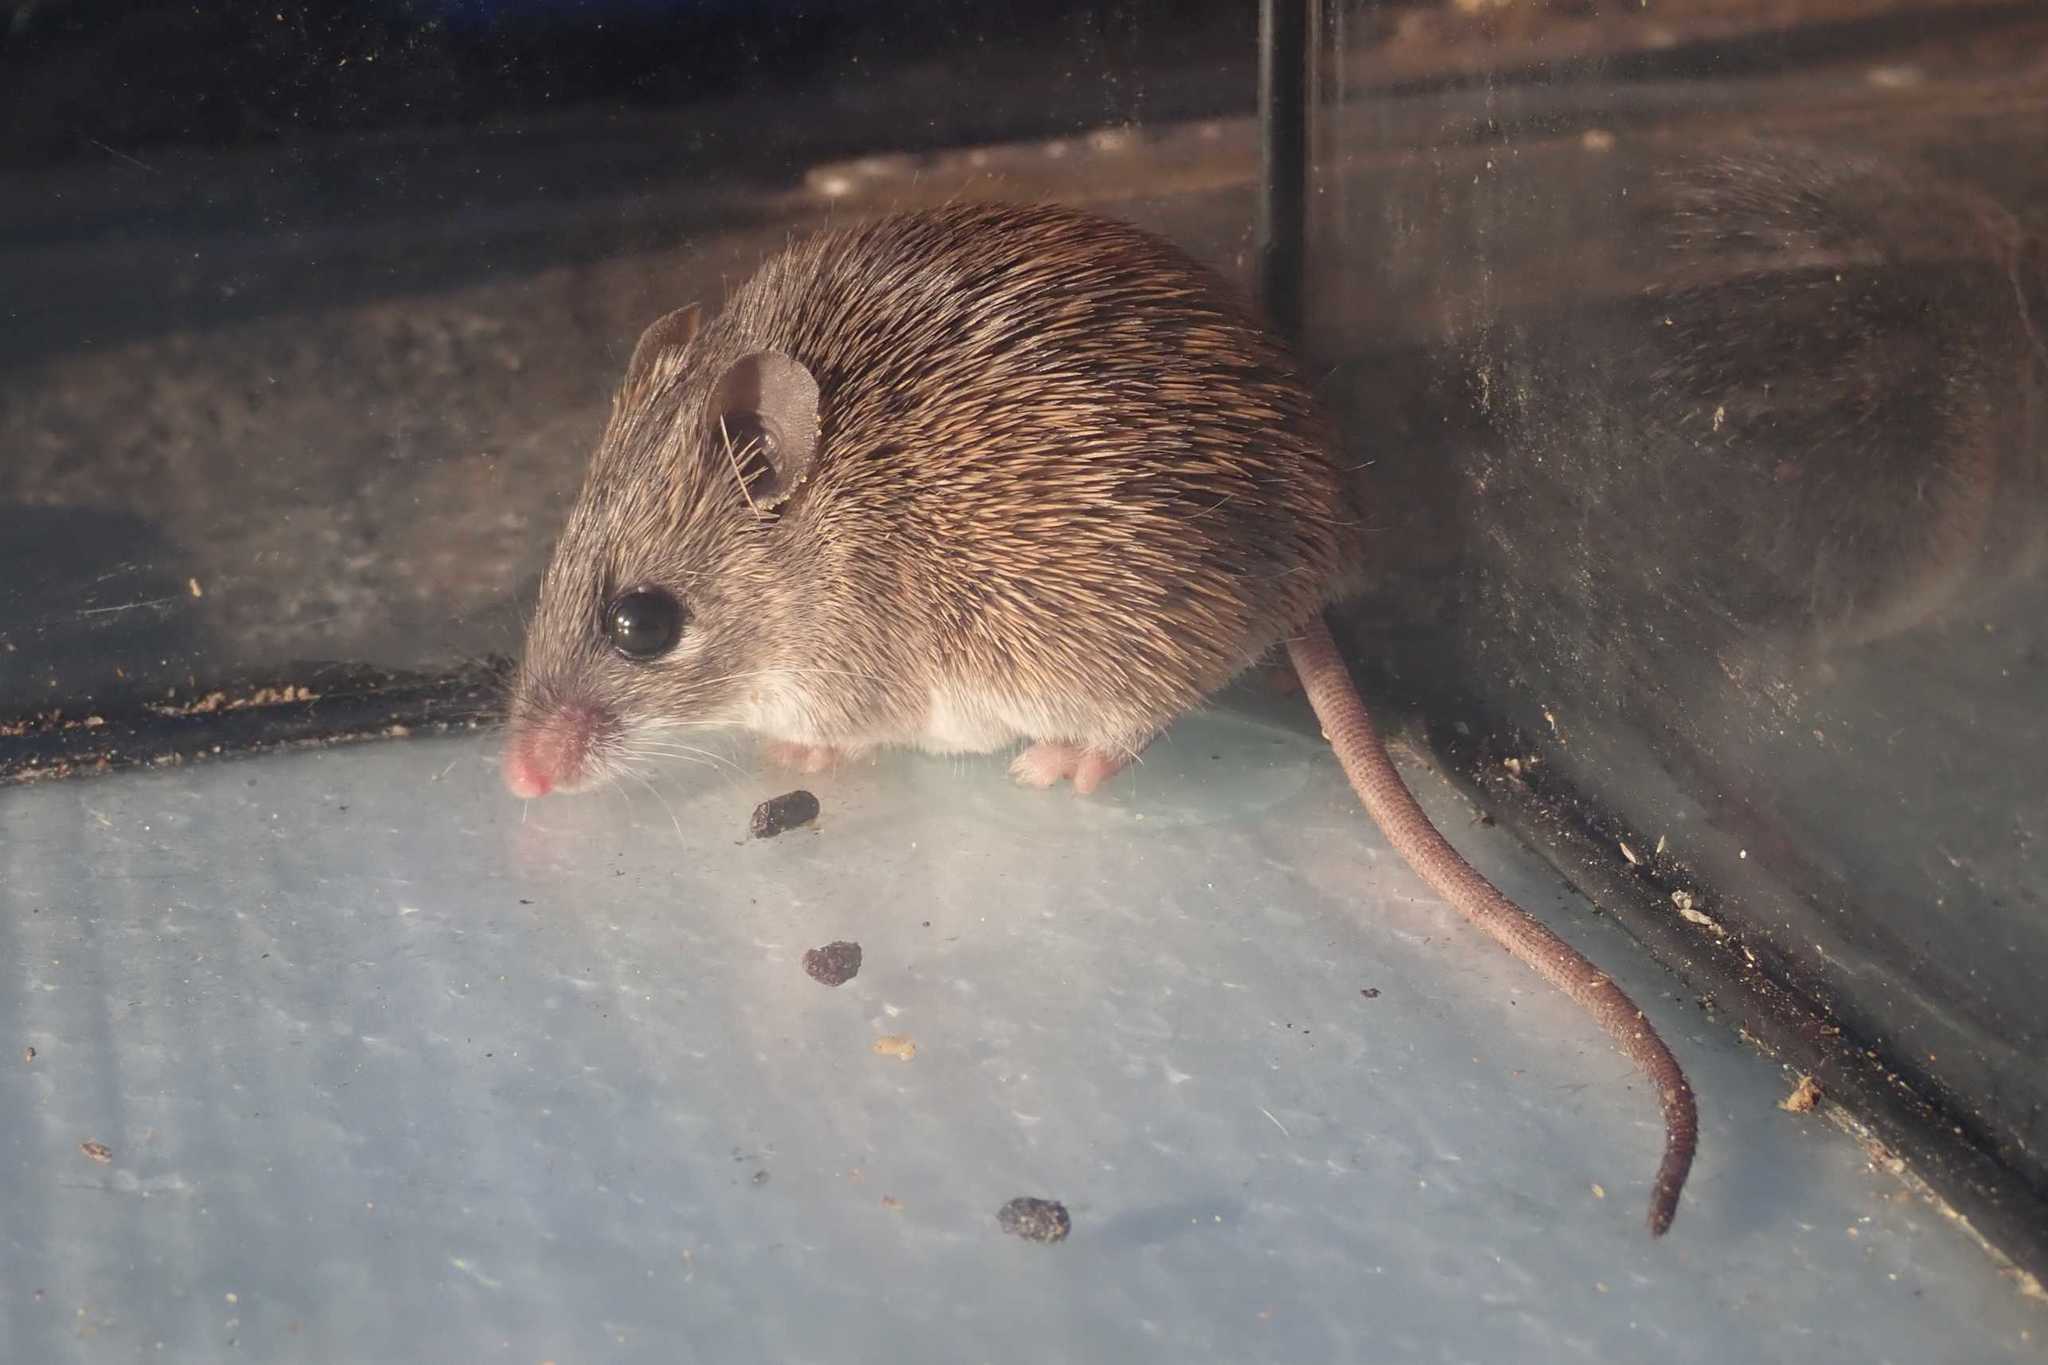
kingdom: Animalia
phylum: Chordata
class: Mammalia
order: Rodentia
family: Muridae
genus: Acomys
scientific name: Acomys selousi
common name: Selous’s spiny mouse
